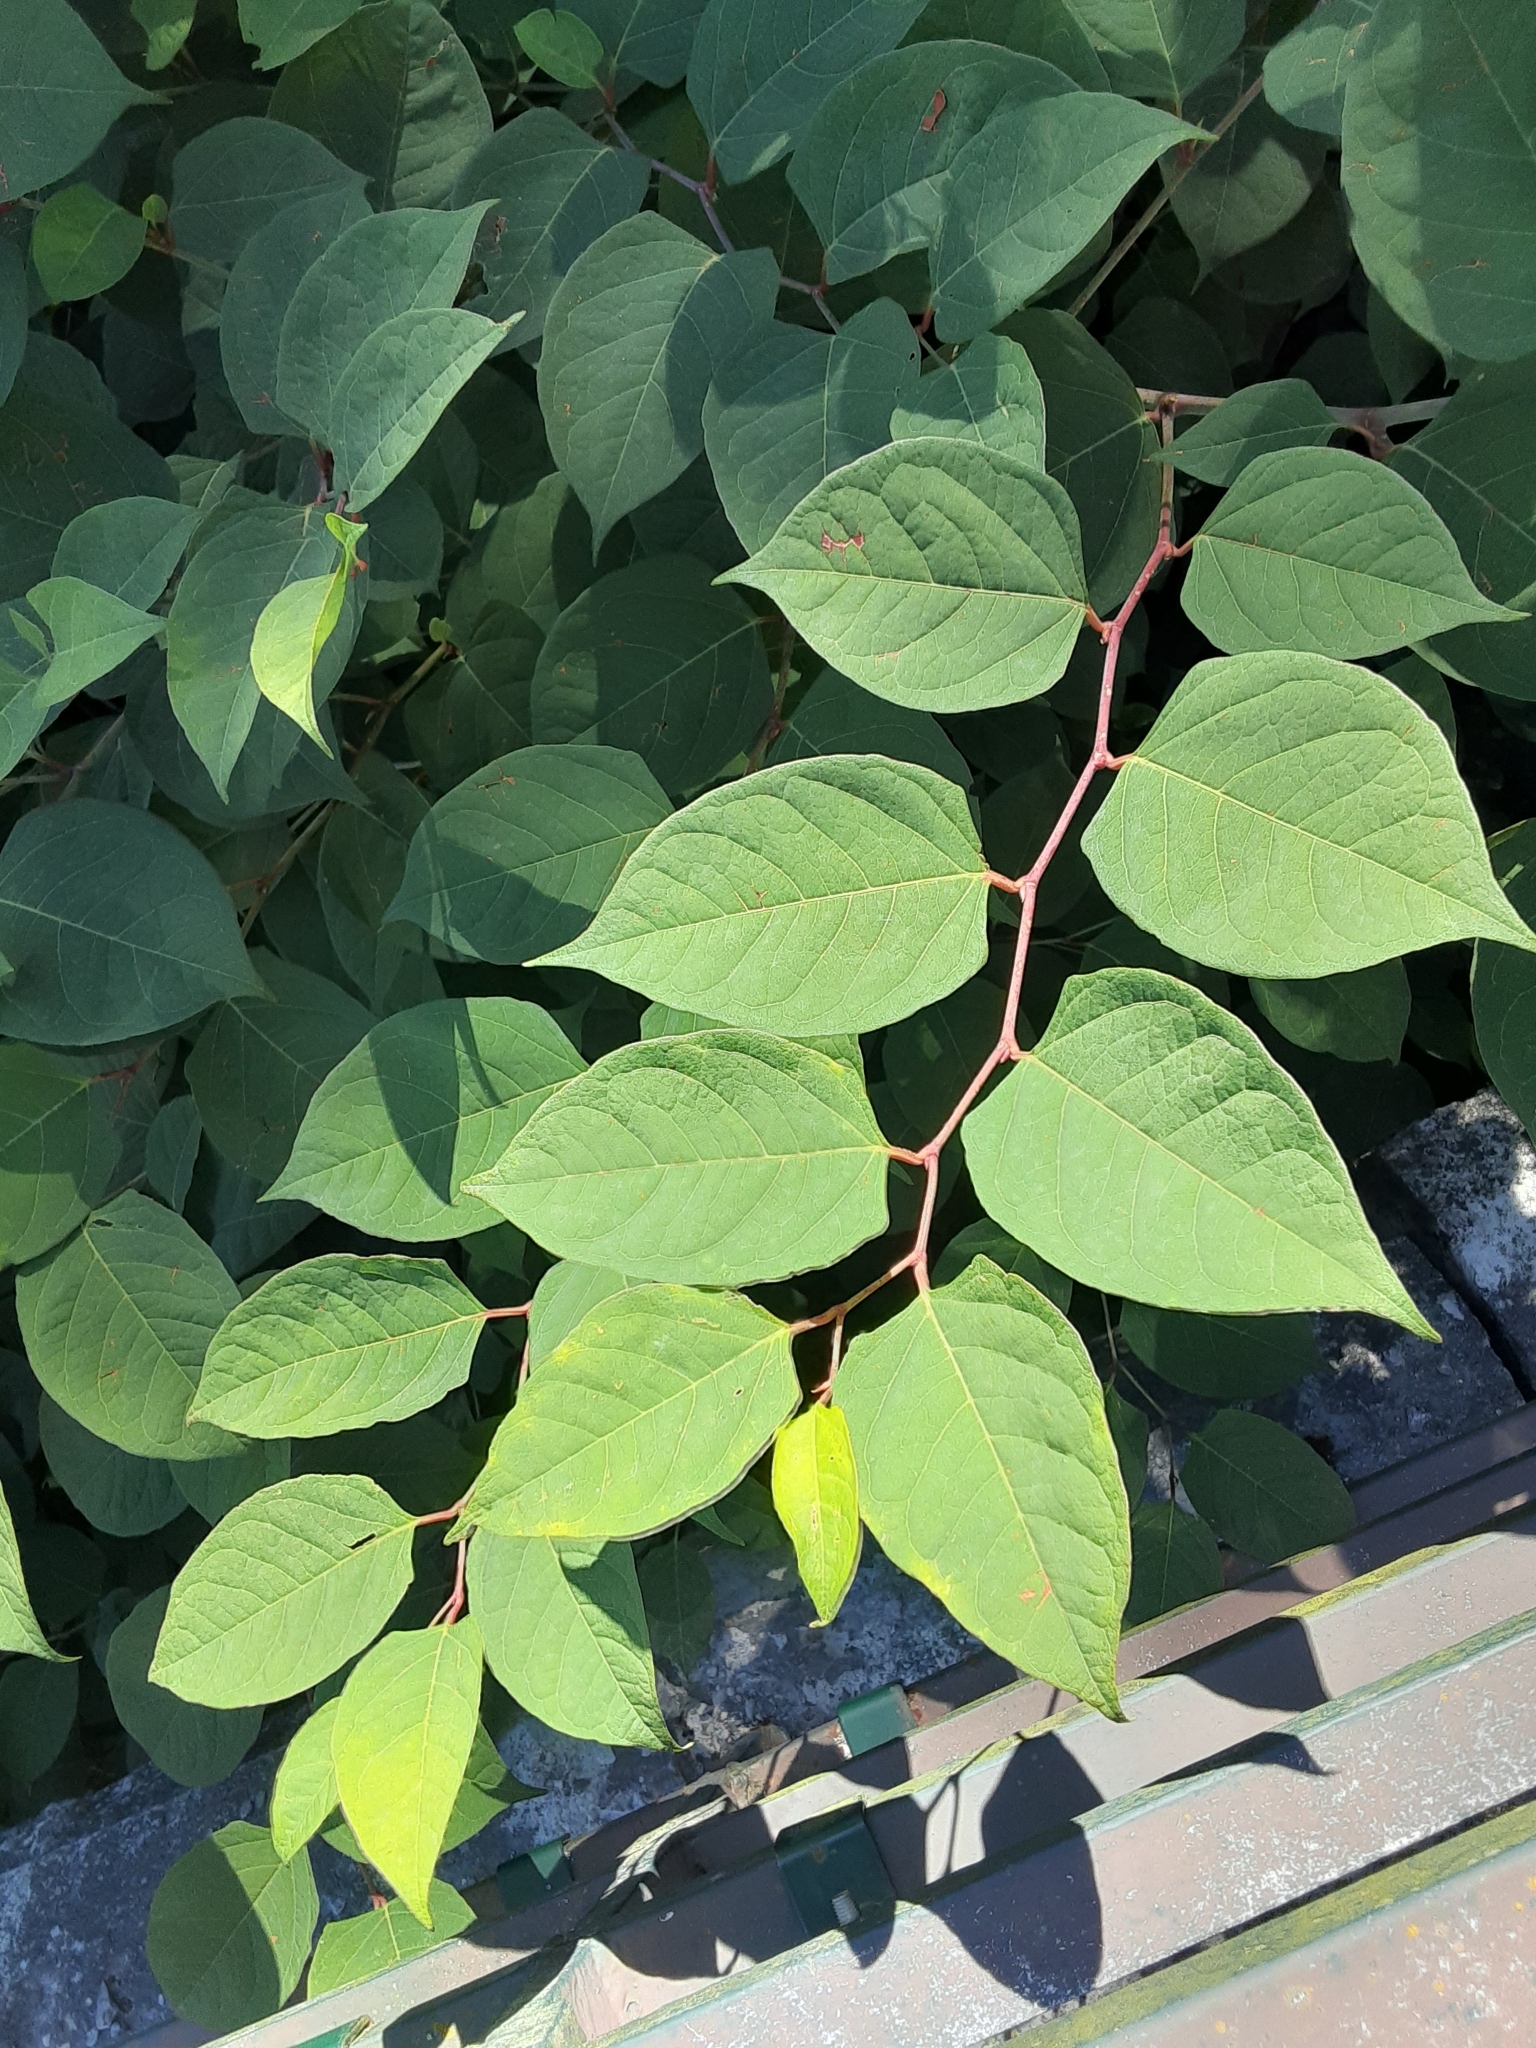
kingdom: Plantae
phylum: Tracheophyta
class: Magnoliopsida
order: Caryophyllales
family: Polygonaceae
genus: Reynoutria
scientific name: Reynoutria japonica
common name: Japanese knotweed
